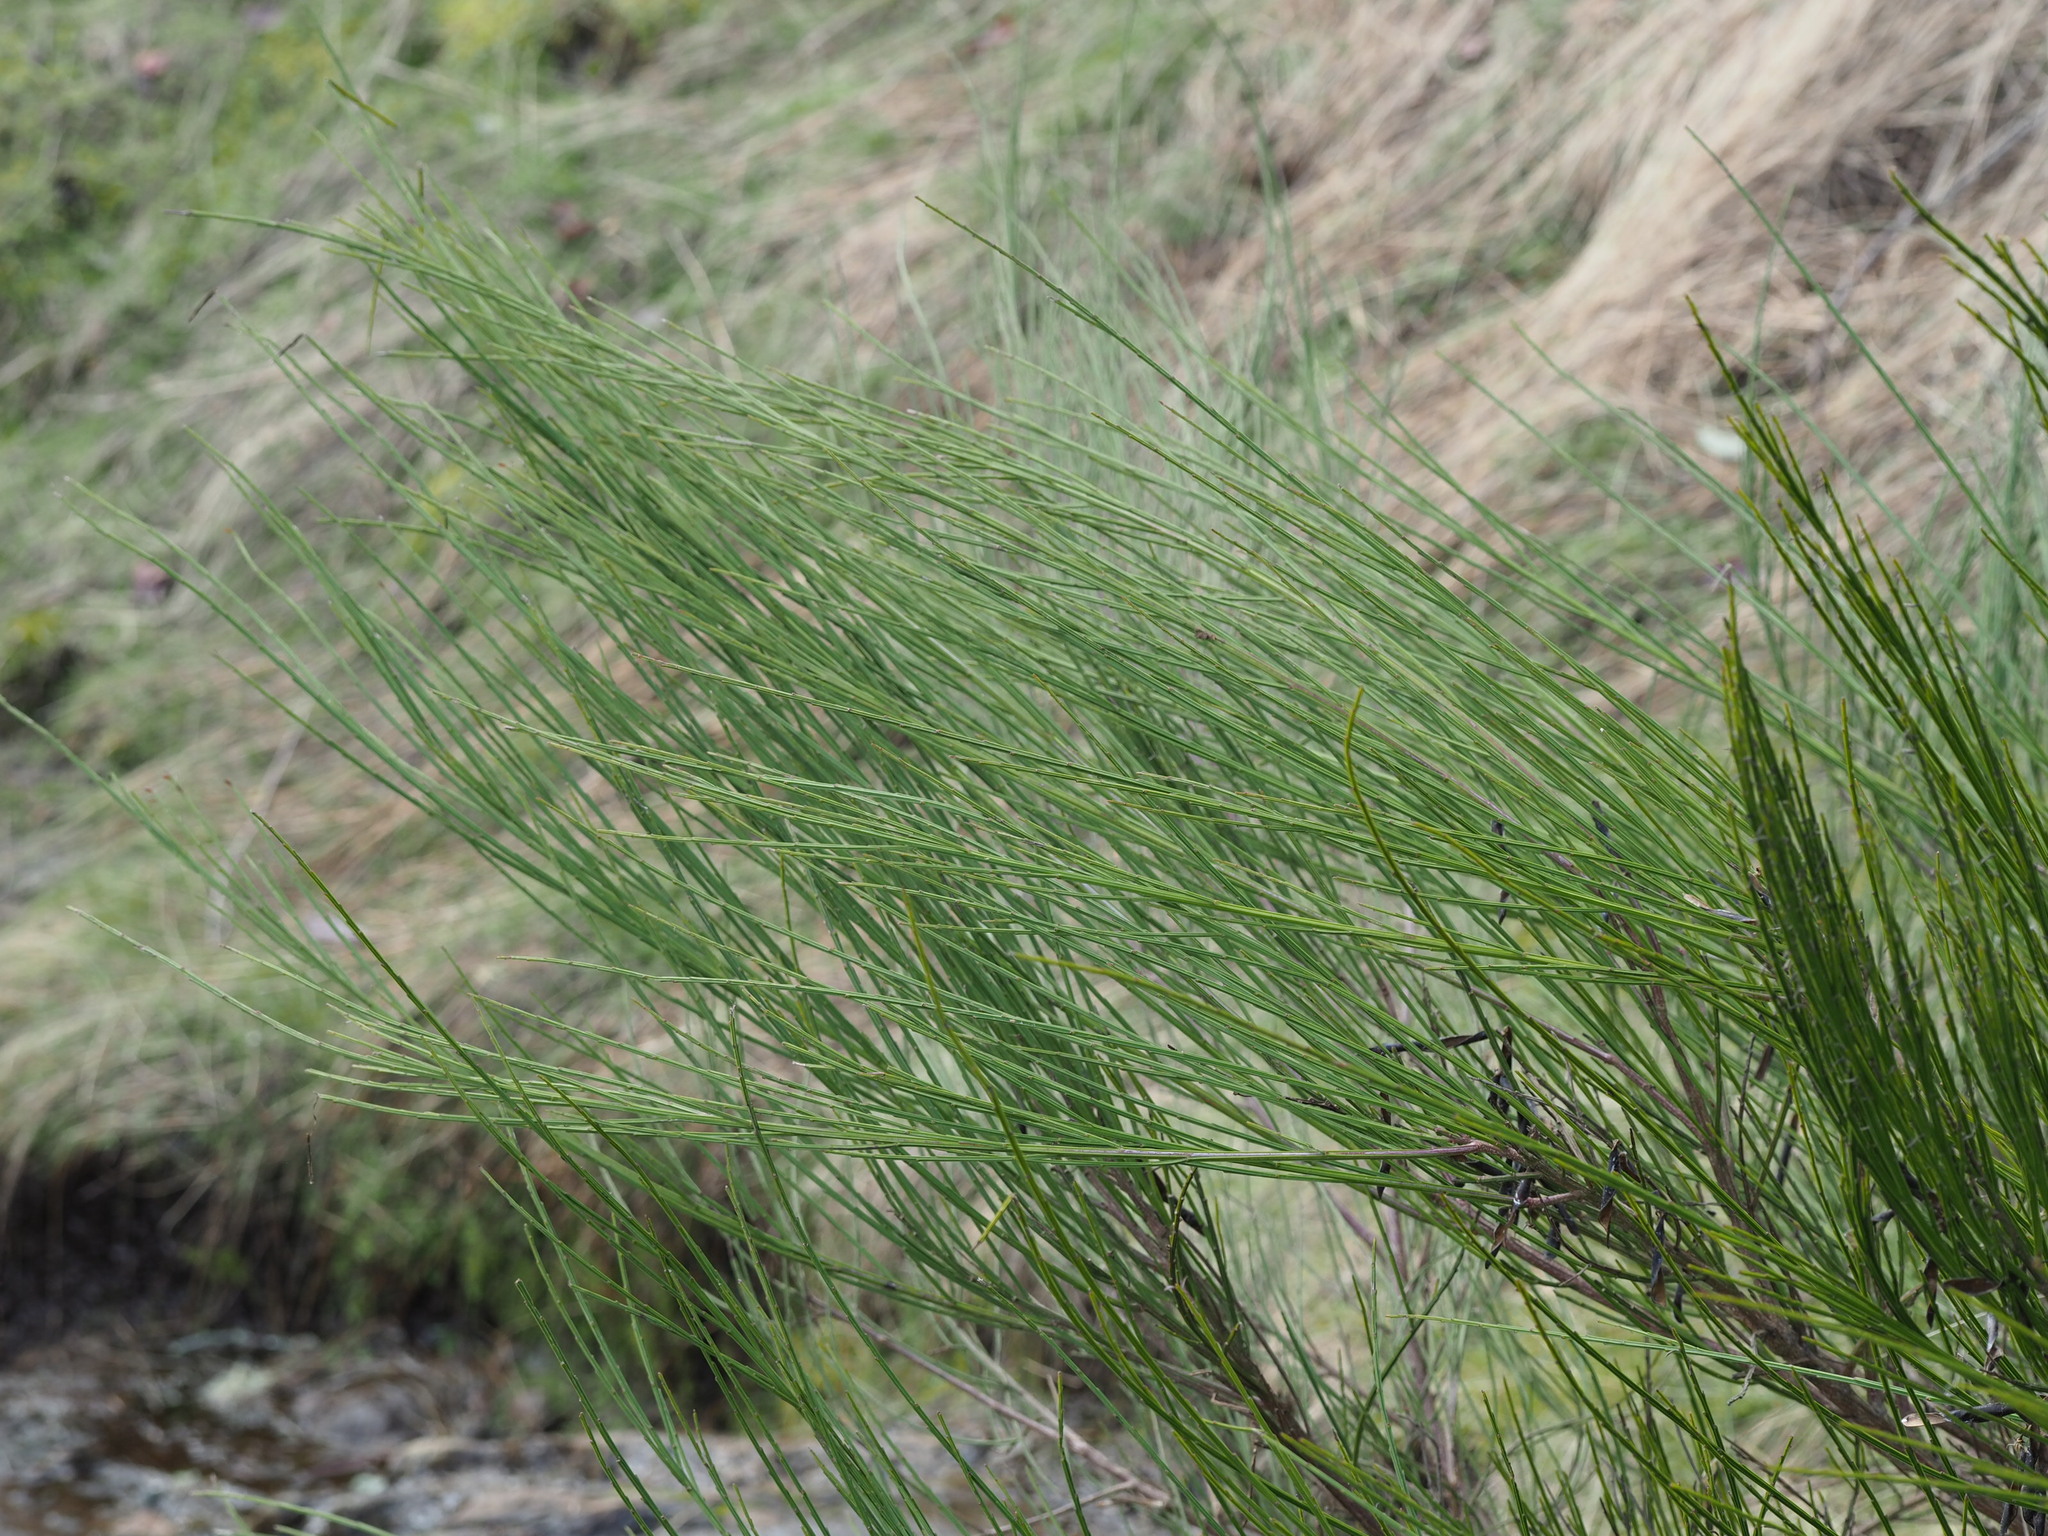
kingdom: Plantae
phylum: Tracheophyta
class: Magnoliopsida
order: Fabales
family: Fabaceae
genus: Cytisus
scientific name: Cytisus scoparius
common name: Scotch broom
